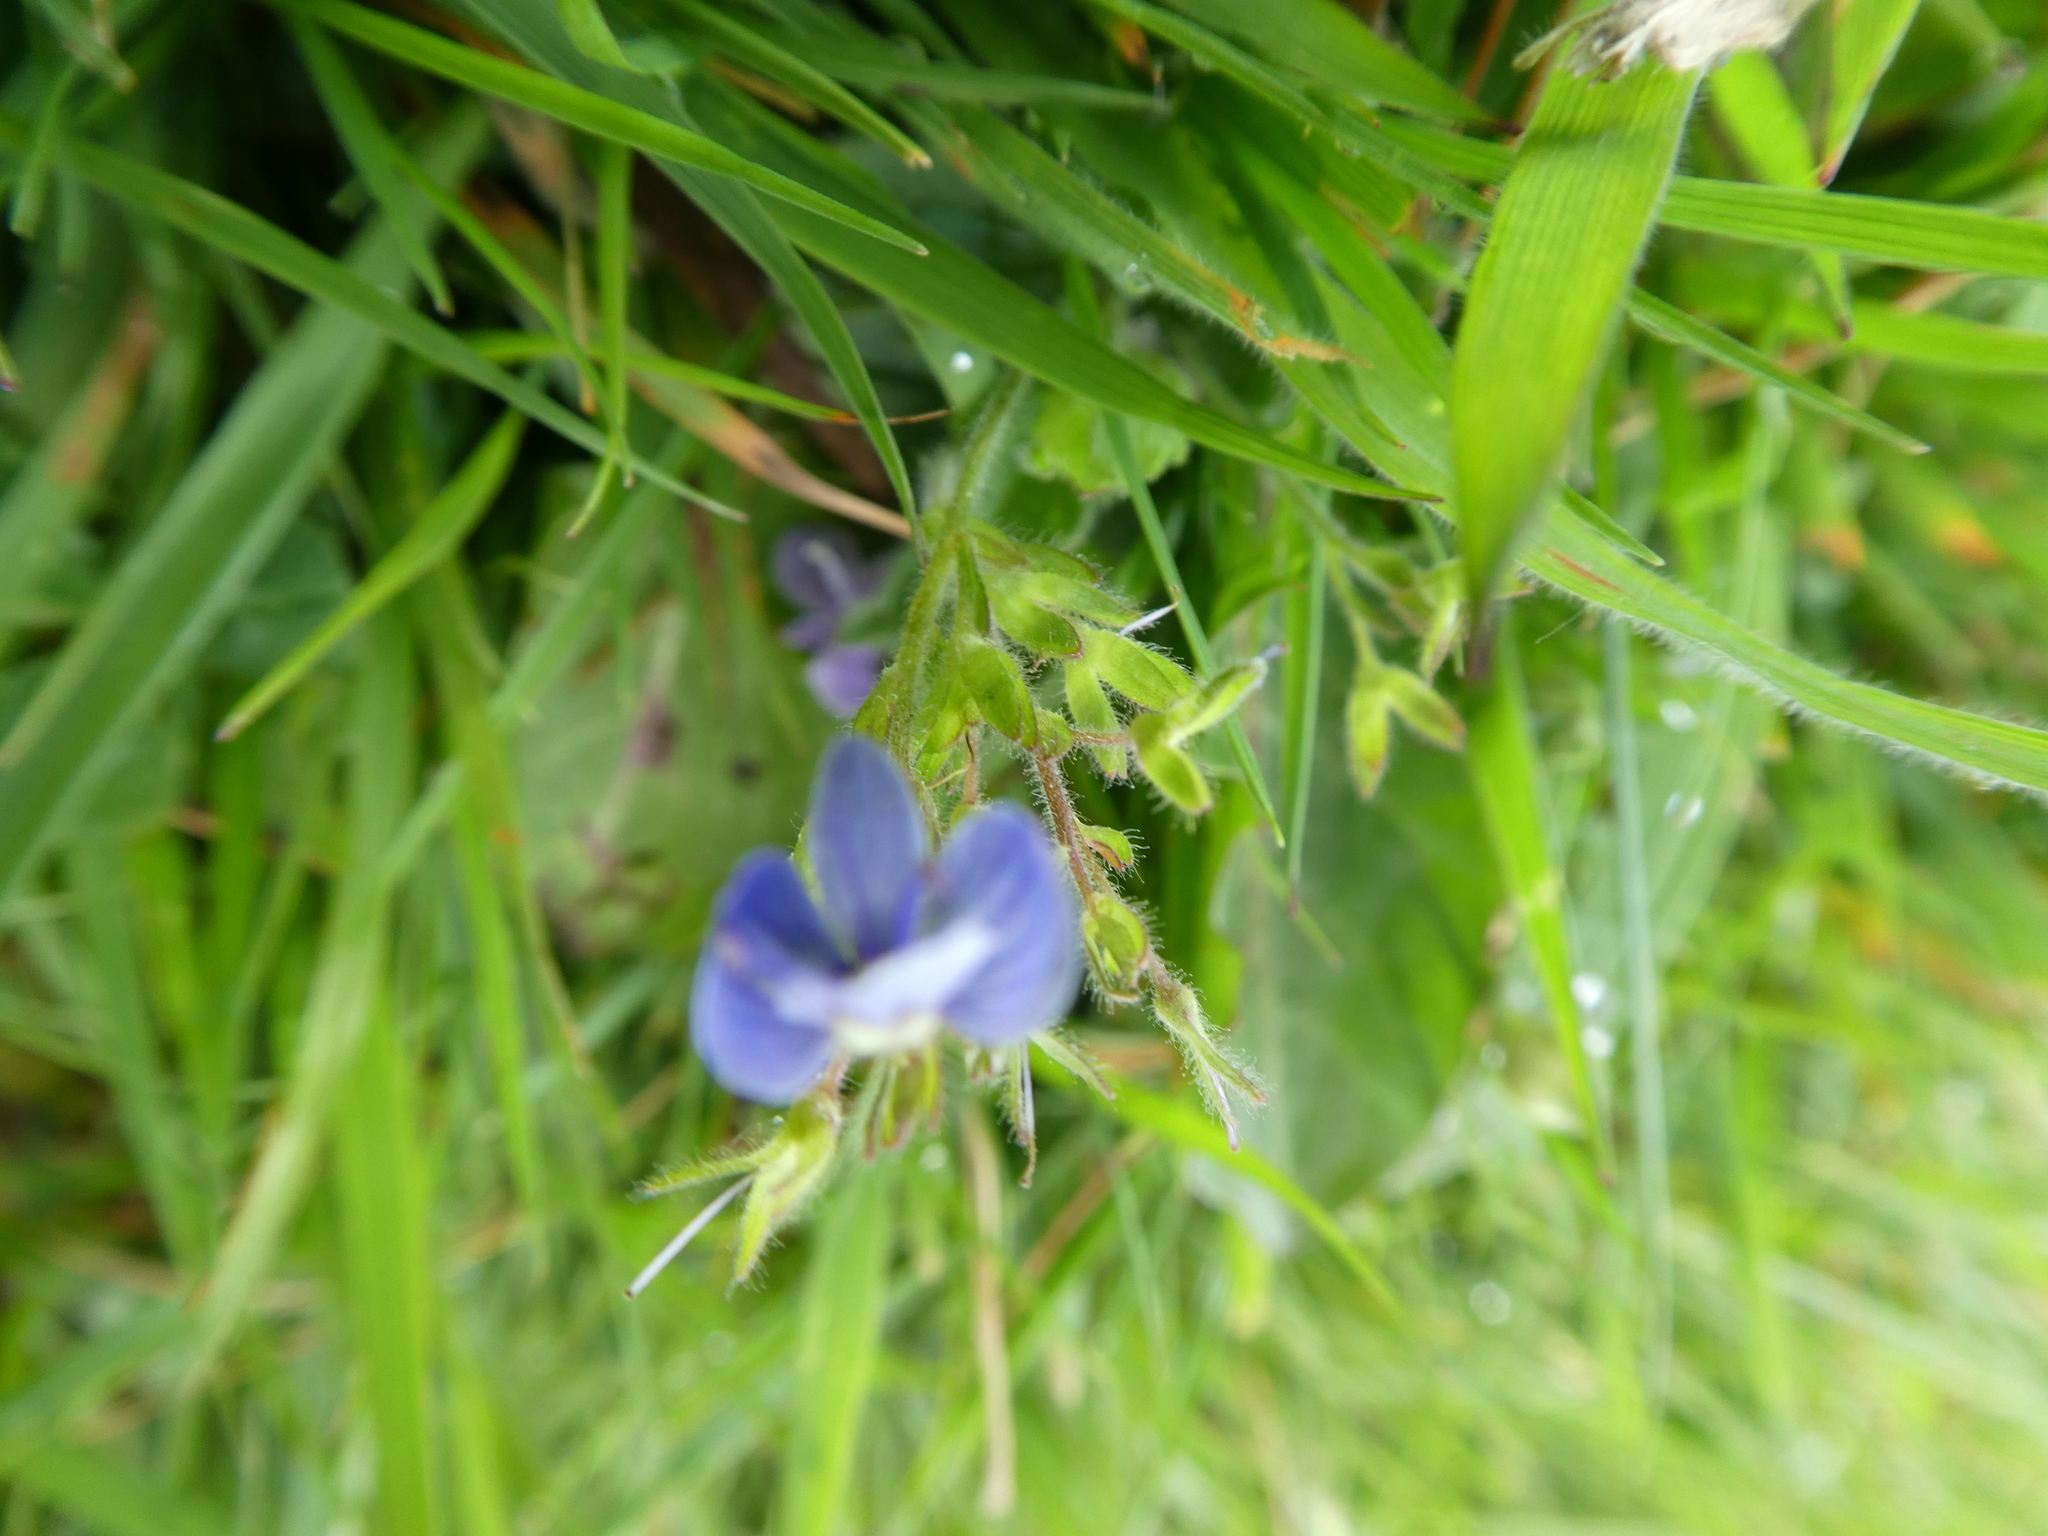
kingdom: Plantae
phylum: Tracheophyta
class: Magnoliopsida
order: Lamiales
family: Plantaginaceae
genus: Veronica
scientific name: Veronica chamaedrys
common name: Germander speedwell
